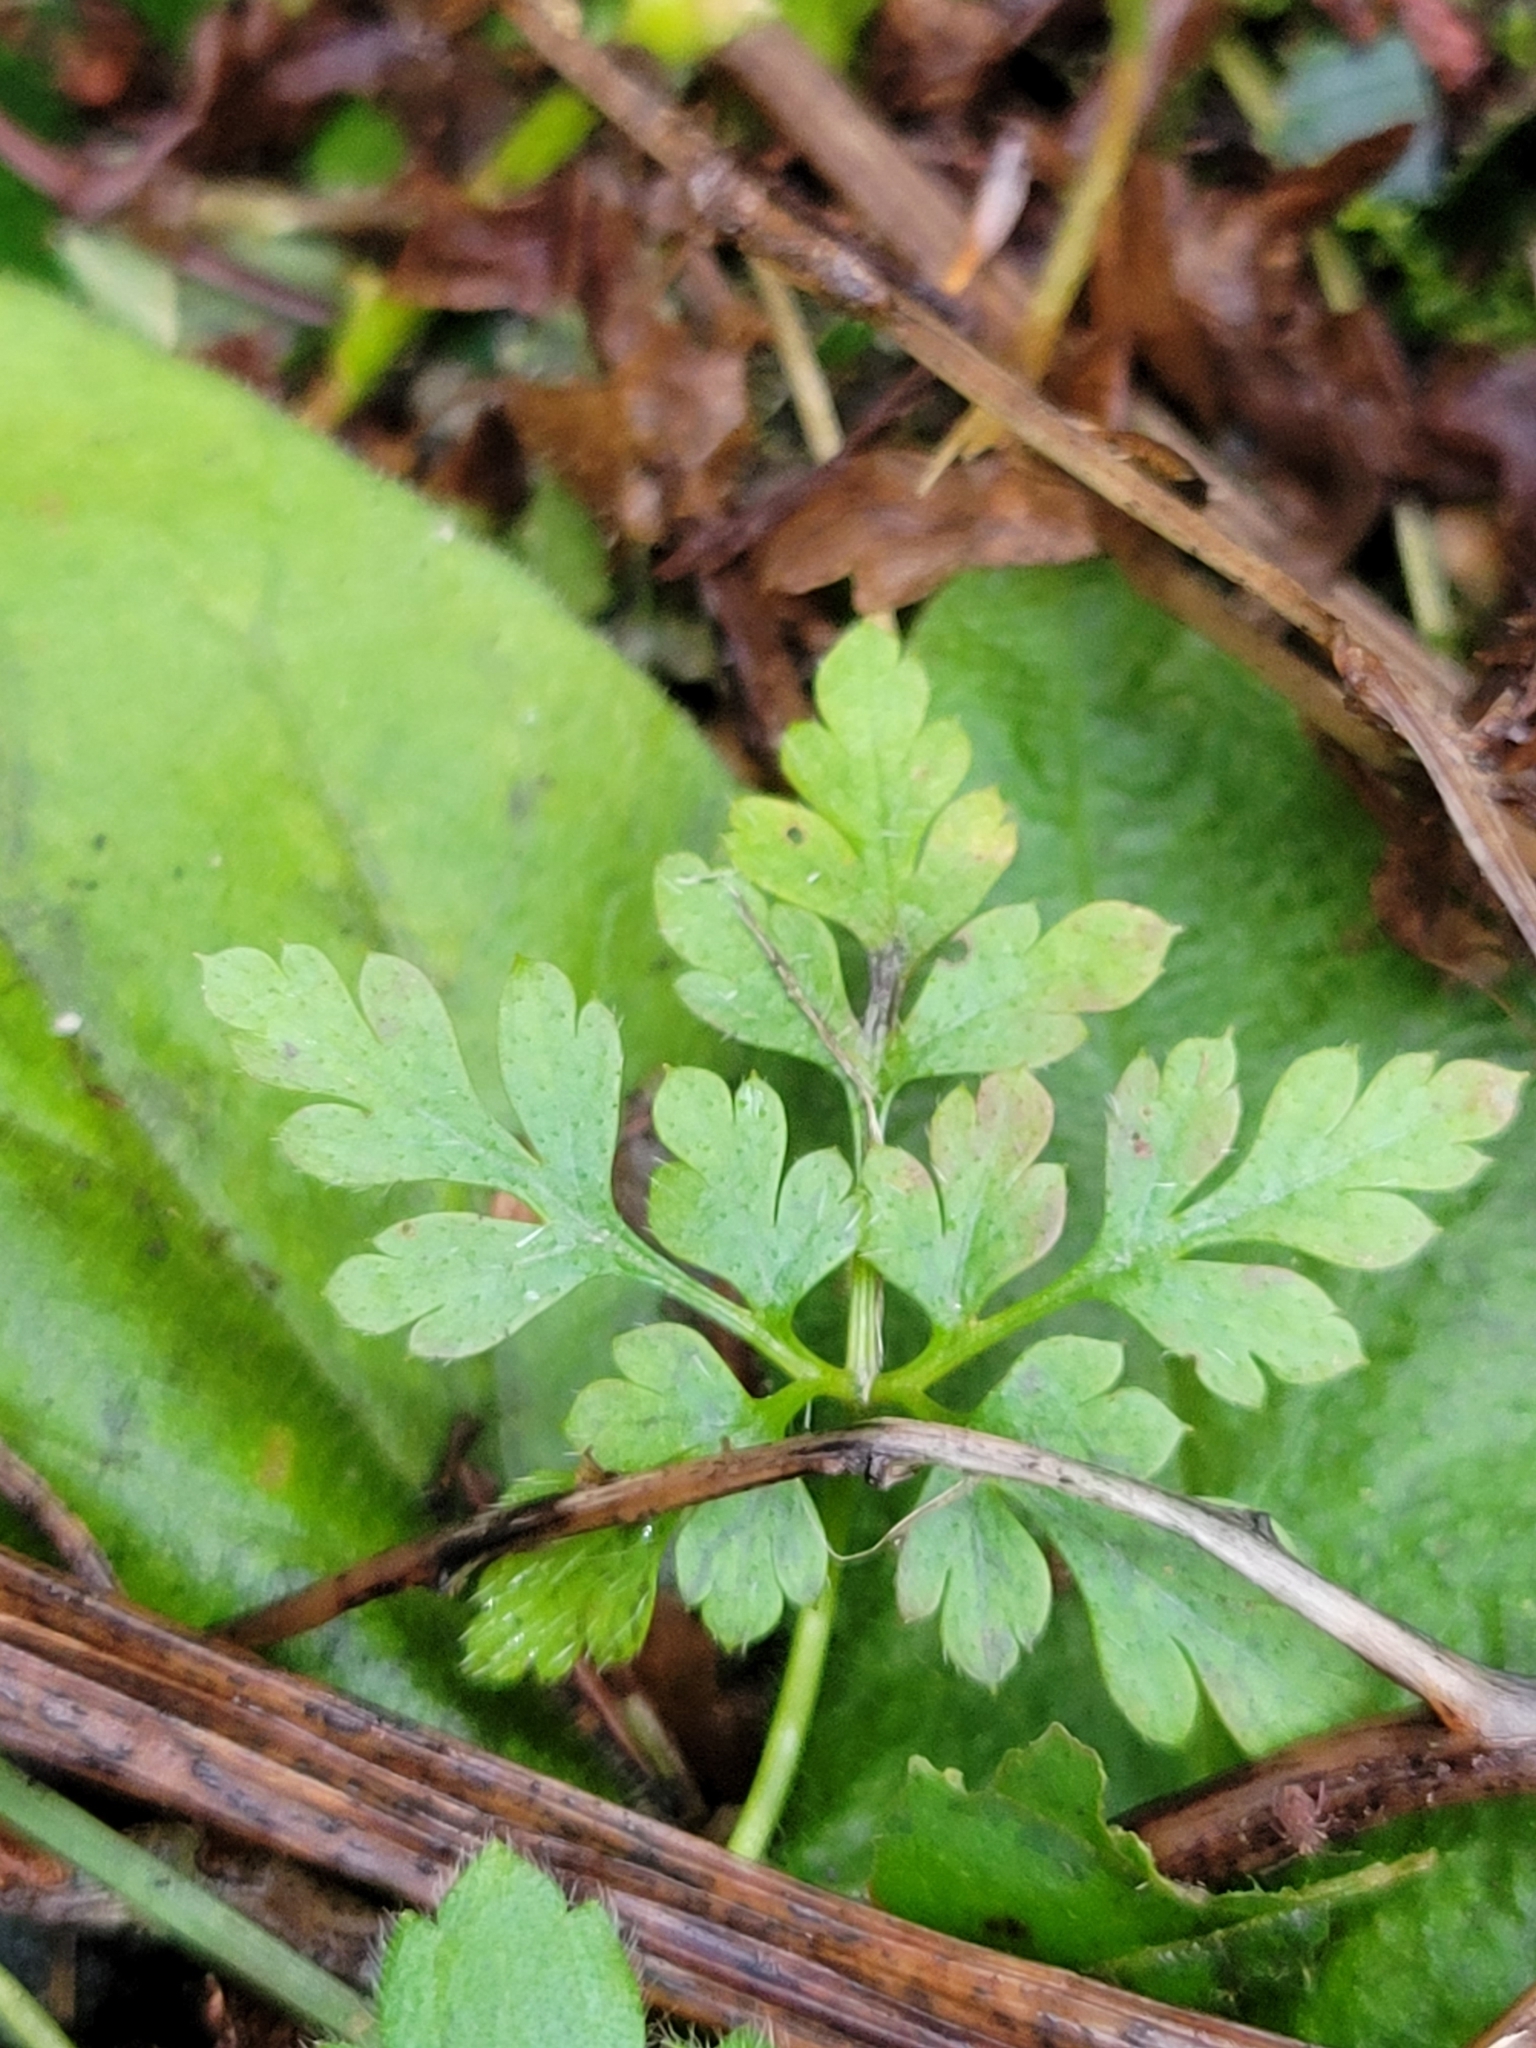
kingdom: Plantae
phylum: Tracheophyta
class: Magnoliopsida
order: Geraniales
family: Geraniaceae
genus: Geranium
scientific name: Geranium robertianum
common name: Herb-robert
